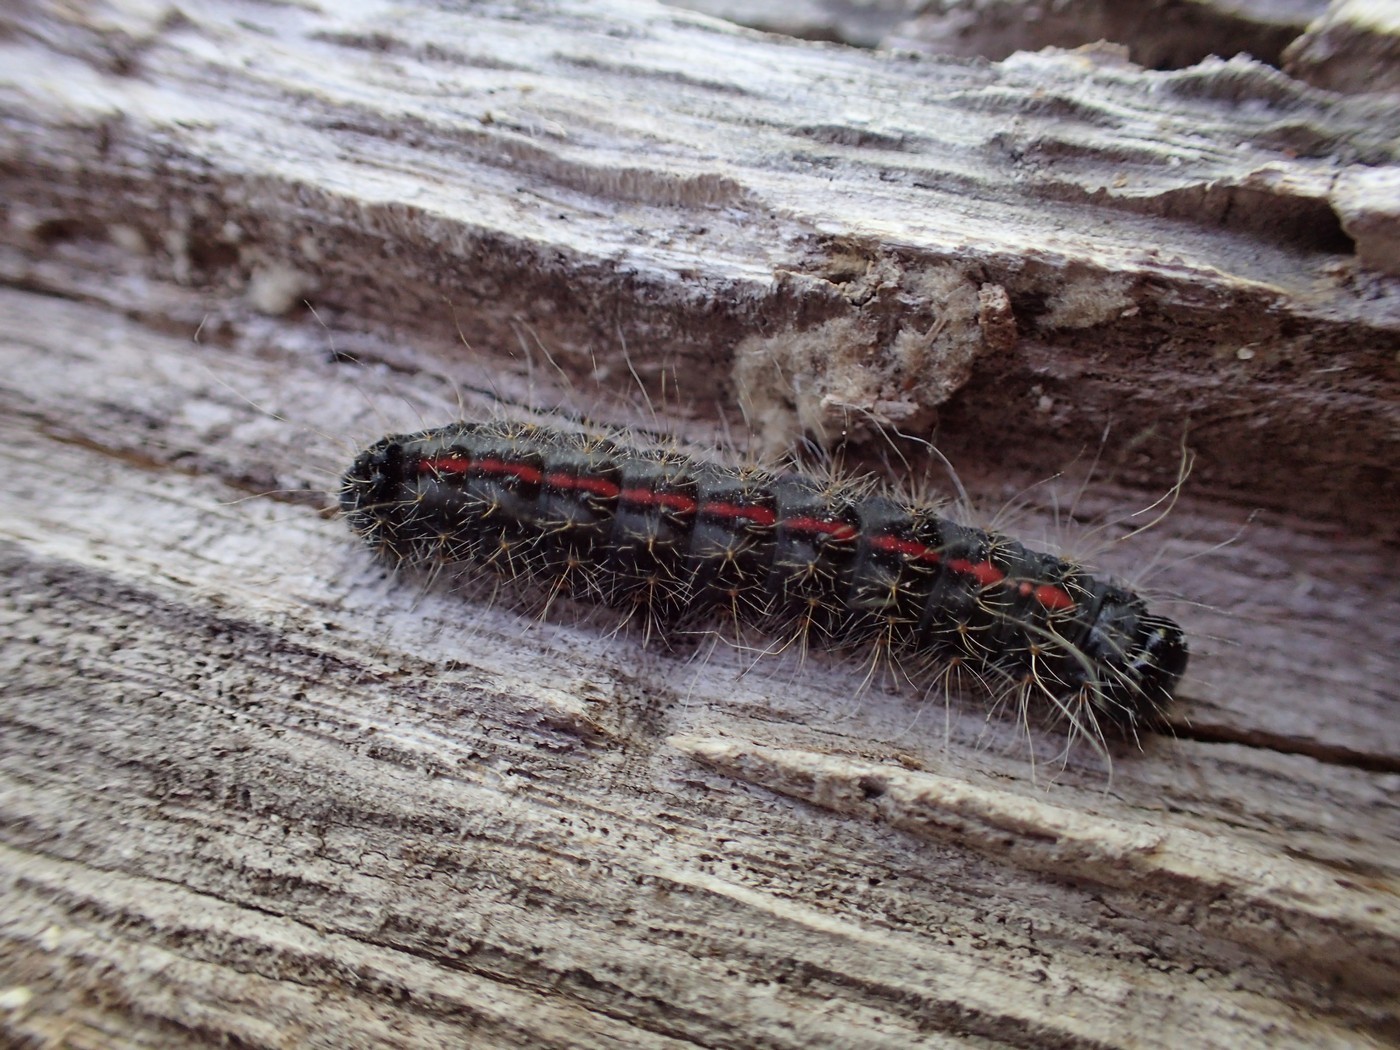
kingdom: Animalia
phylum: Arthropoda
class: Insecta
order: Lepidoptera
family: Noctuidae
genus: Acronicta
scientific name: Acronicta hasta
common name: Cherry dagger
